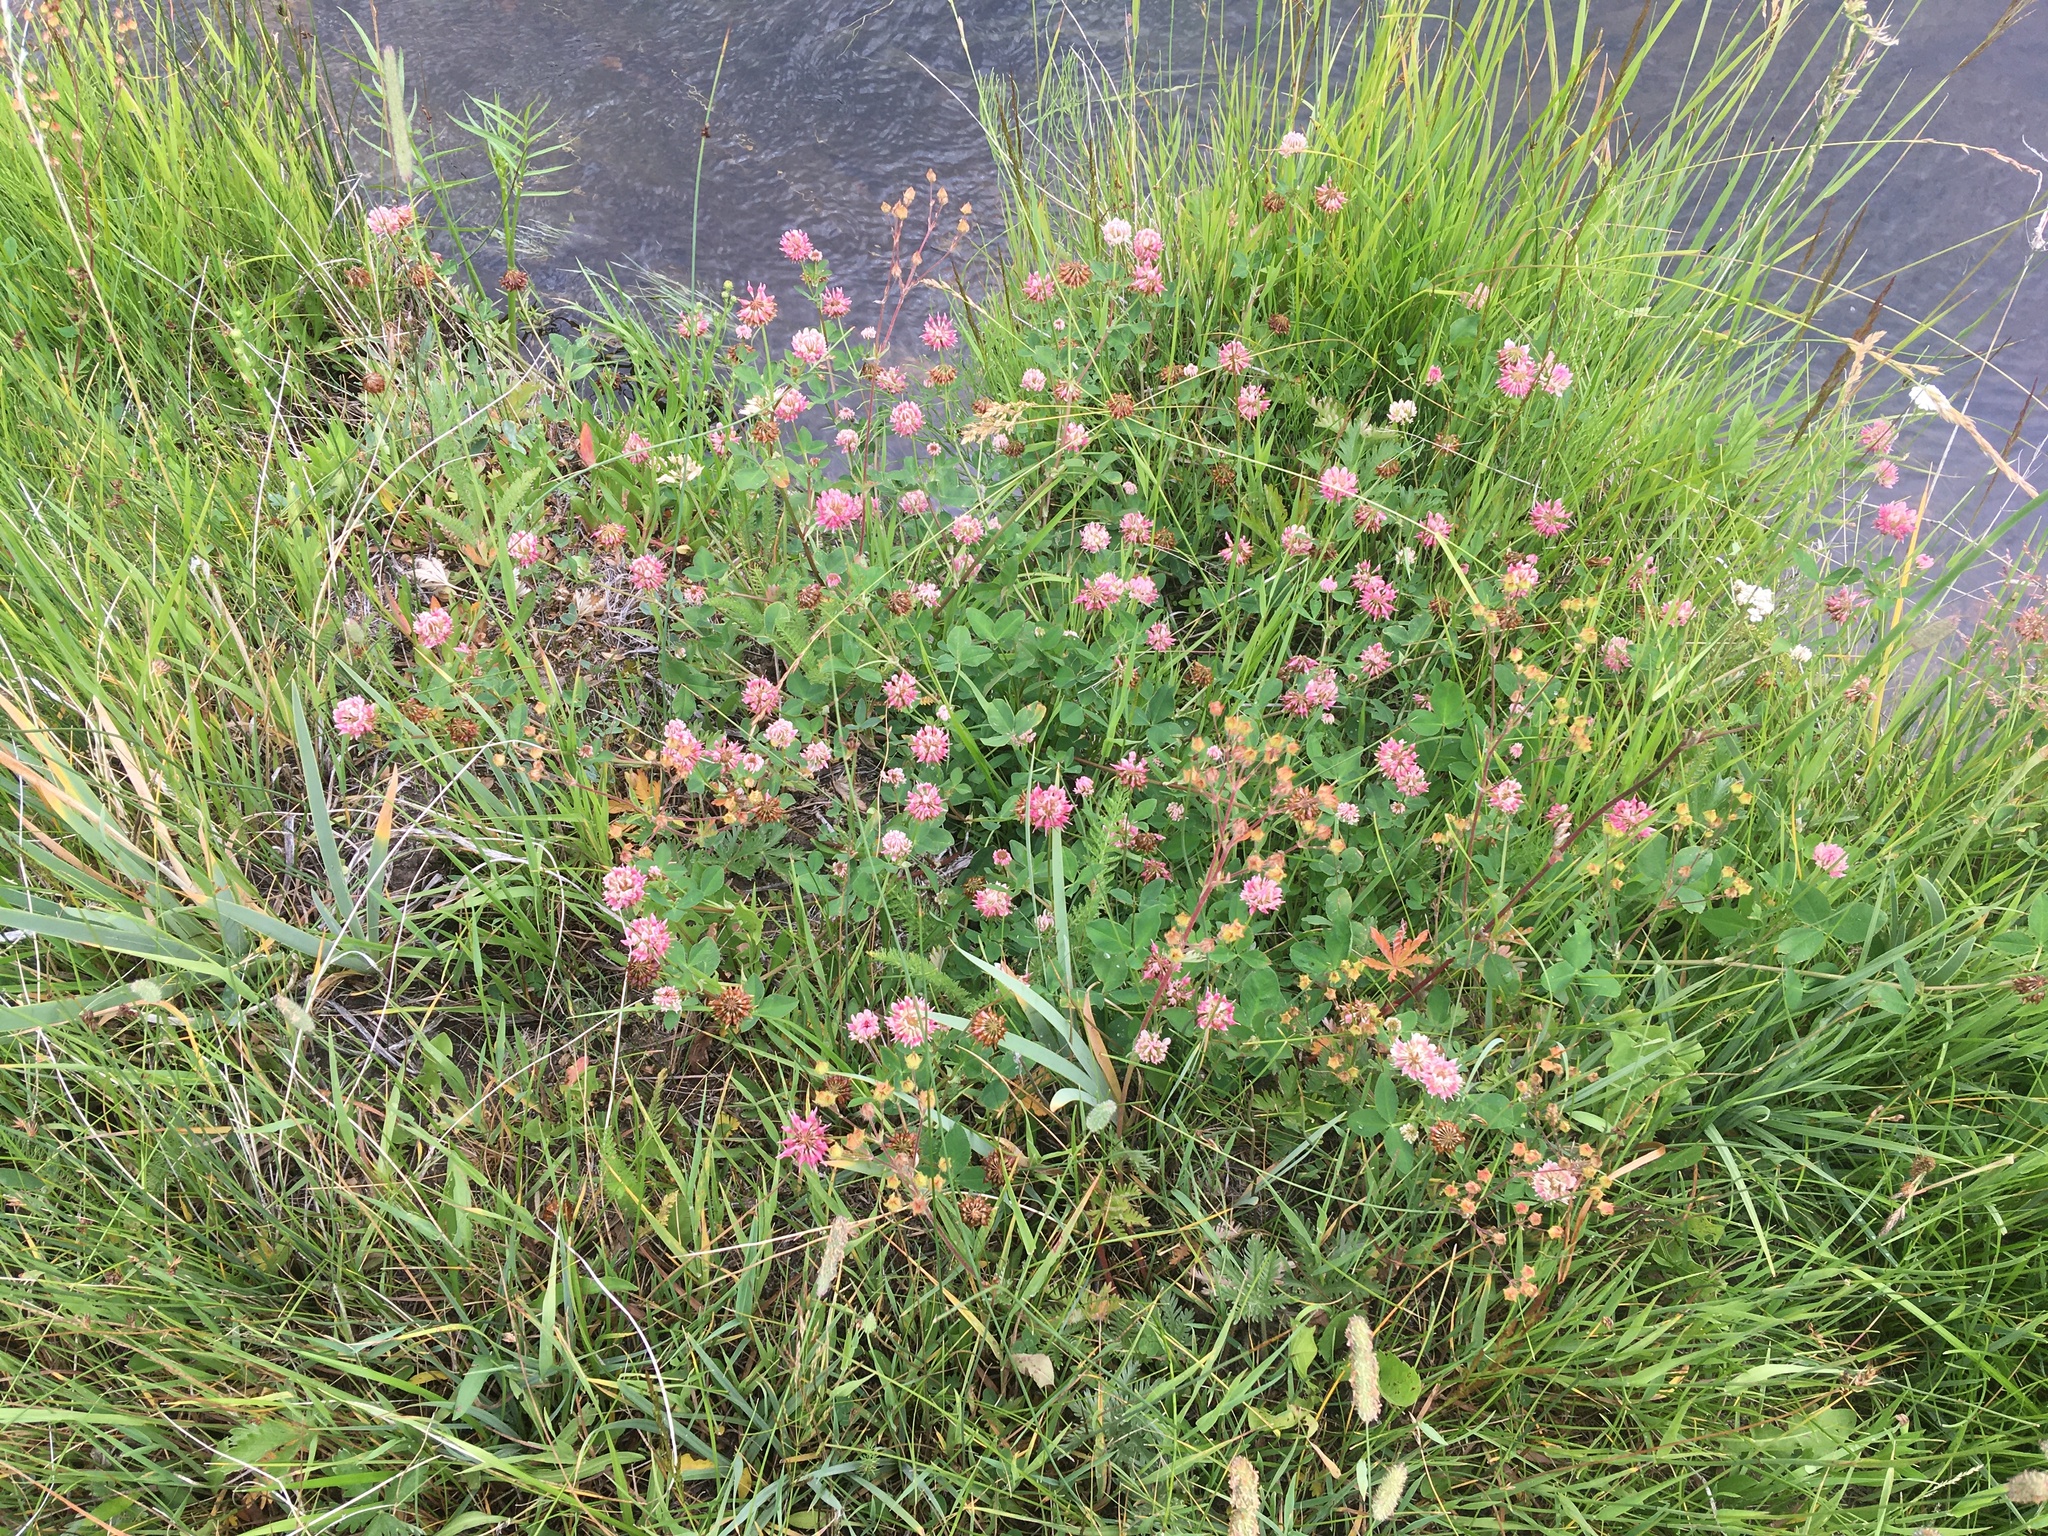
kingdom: Plantae
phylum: Tracheophyta
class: Magnoliopsida
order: Fabales
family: Fabaceae
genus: Trifolium
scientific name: Trifolium hybridum
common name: Alsike clover
